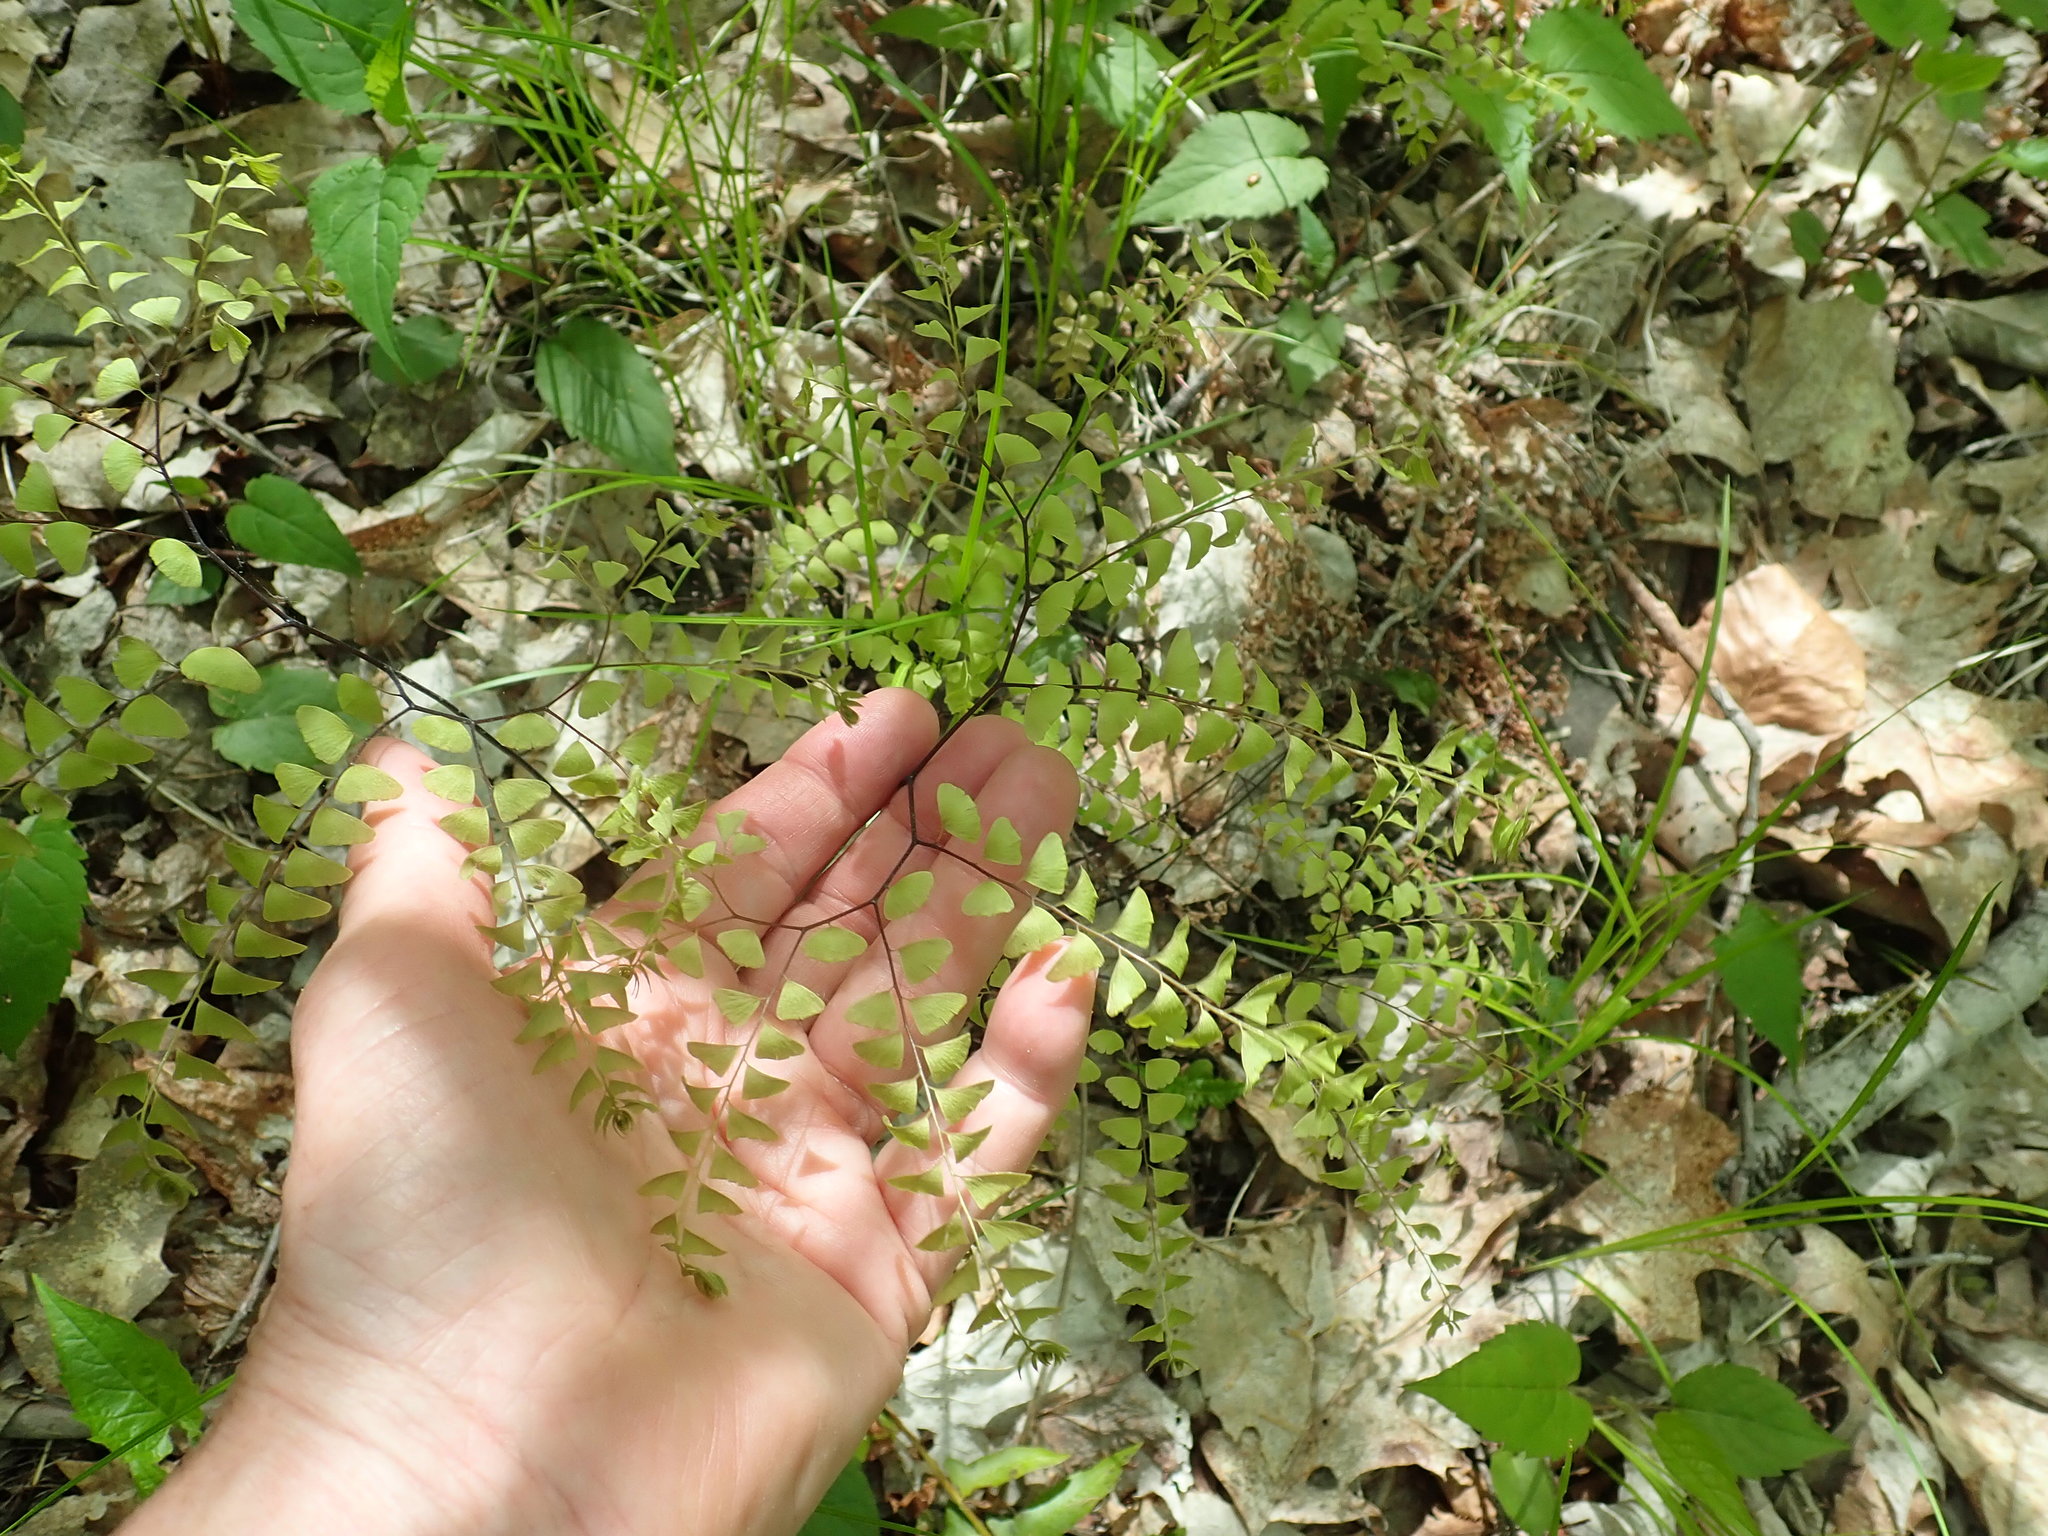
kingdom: Plantae
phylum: Tracheophyta
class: Polypodiopsida
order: Polypodiales
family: Pteridaceae
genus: Adiantum
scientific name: Adiantum pedatum
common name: Five-finger fern
